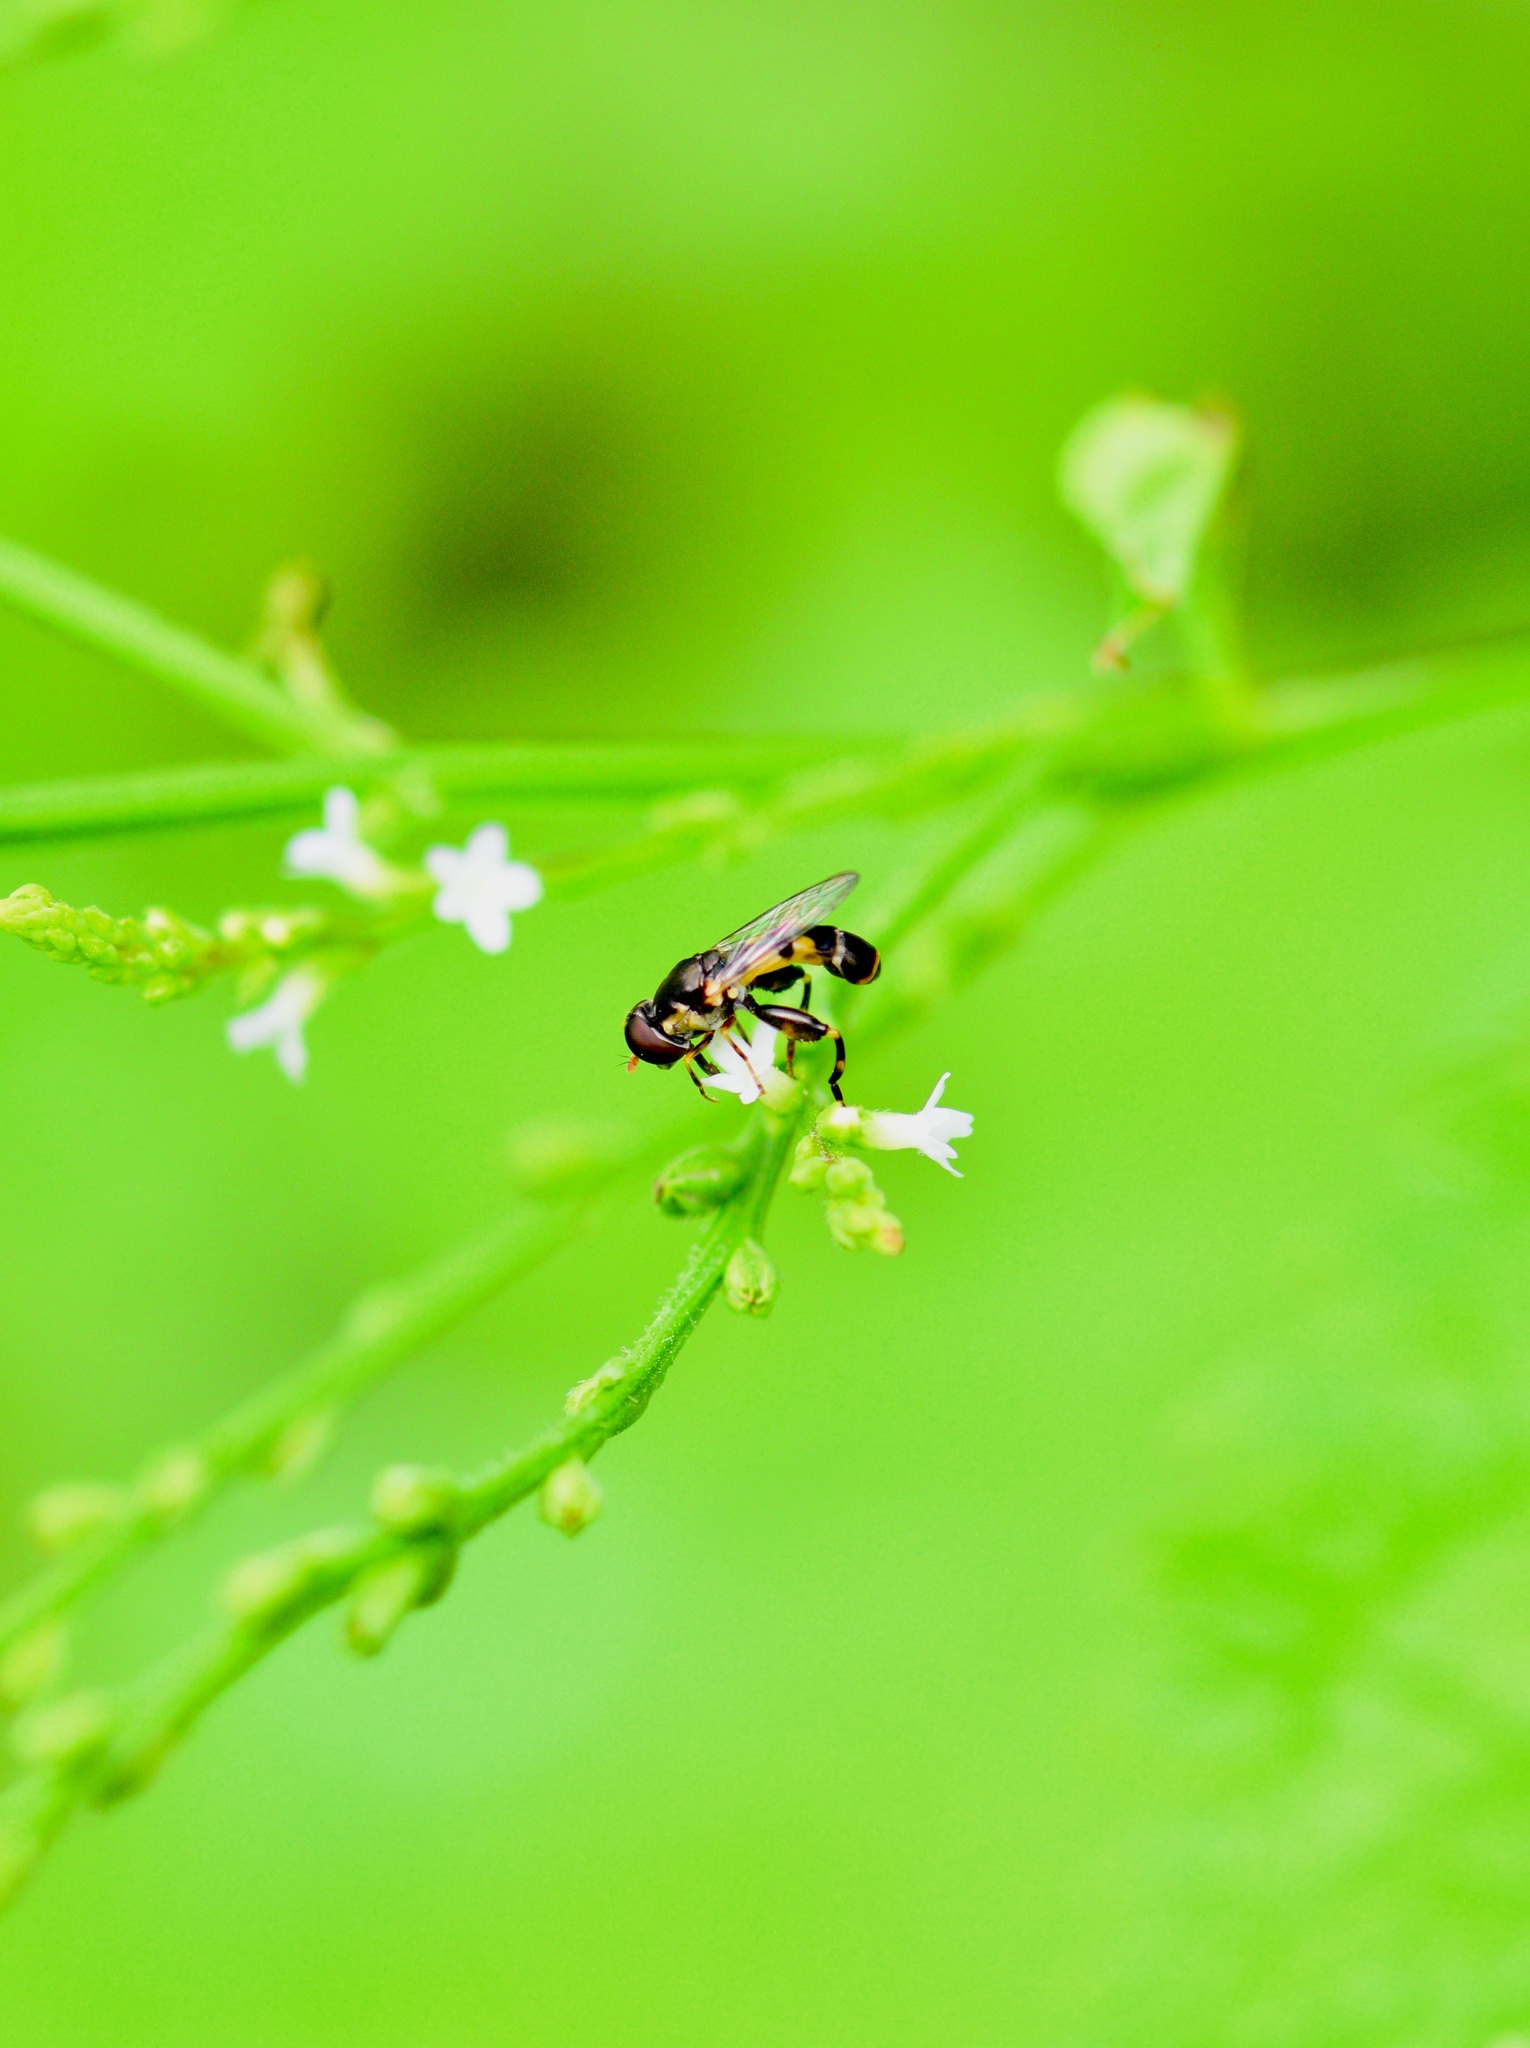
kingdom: Animalia
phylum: Arthropoda
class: Insecta
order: Diptera
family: Syrphidae
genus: Syritta
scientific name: Syritta pipiens
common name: Hover fly
